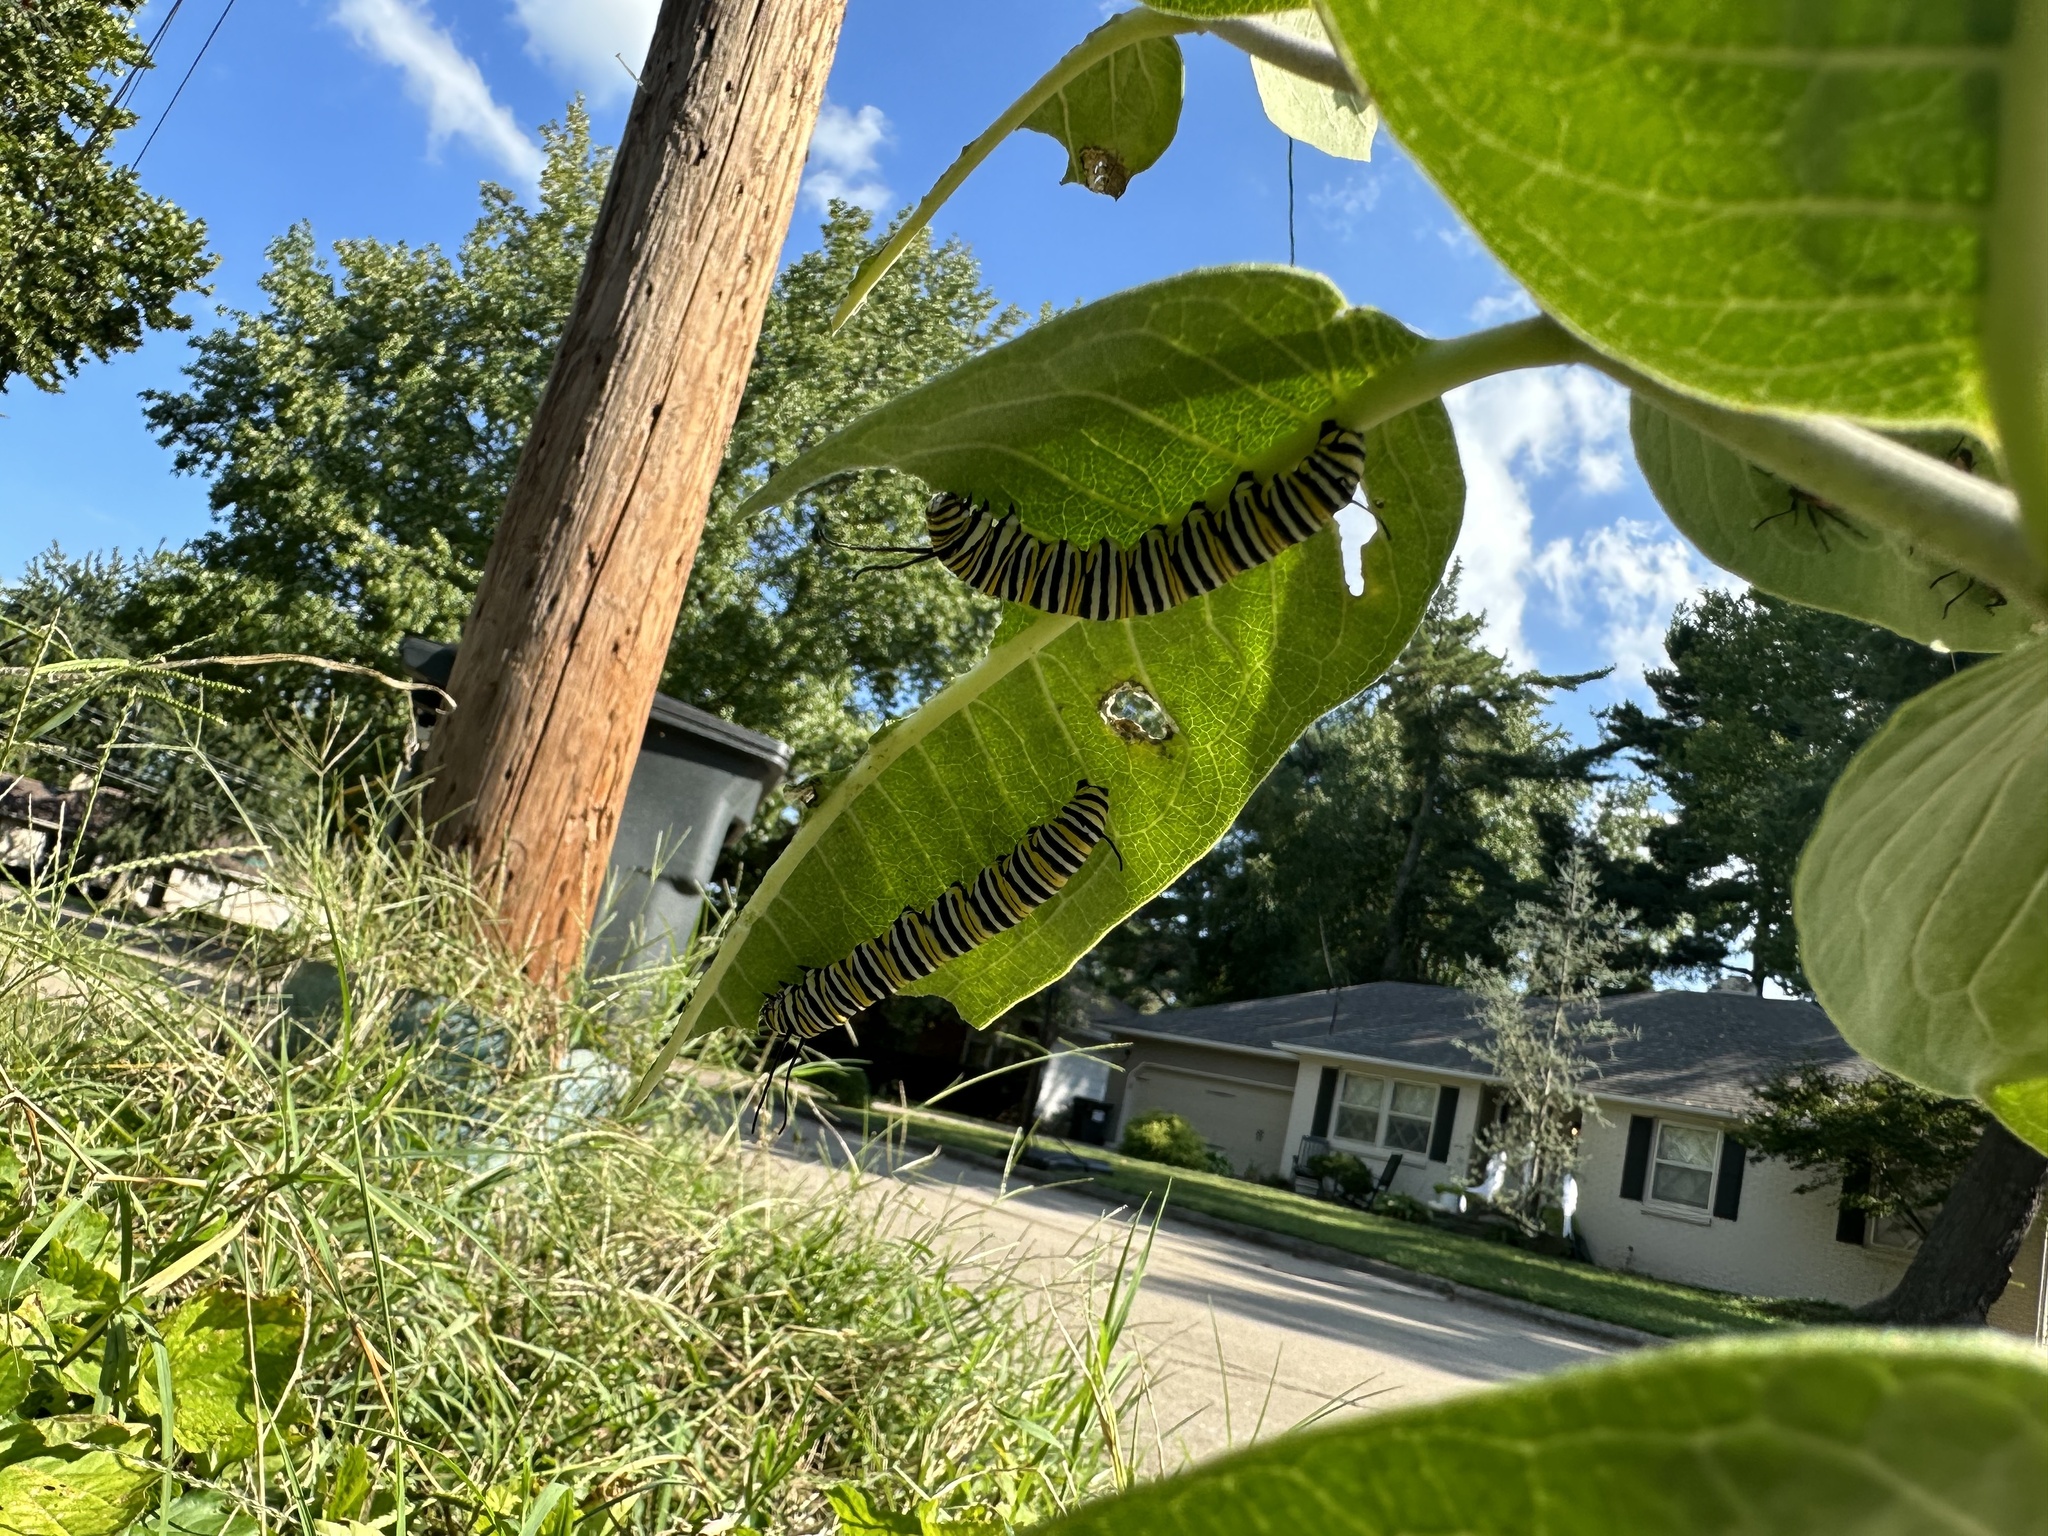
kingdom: Animalia
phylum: Arthropoda
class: Insecta
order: Lepidoptera
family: Nymphalidae
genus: Danaus
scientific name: Danaus plexippus
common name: Monarch
